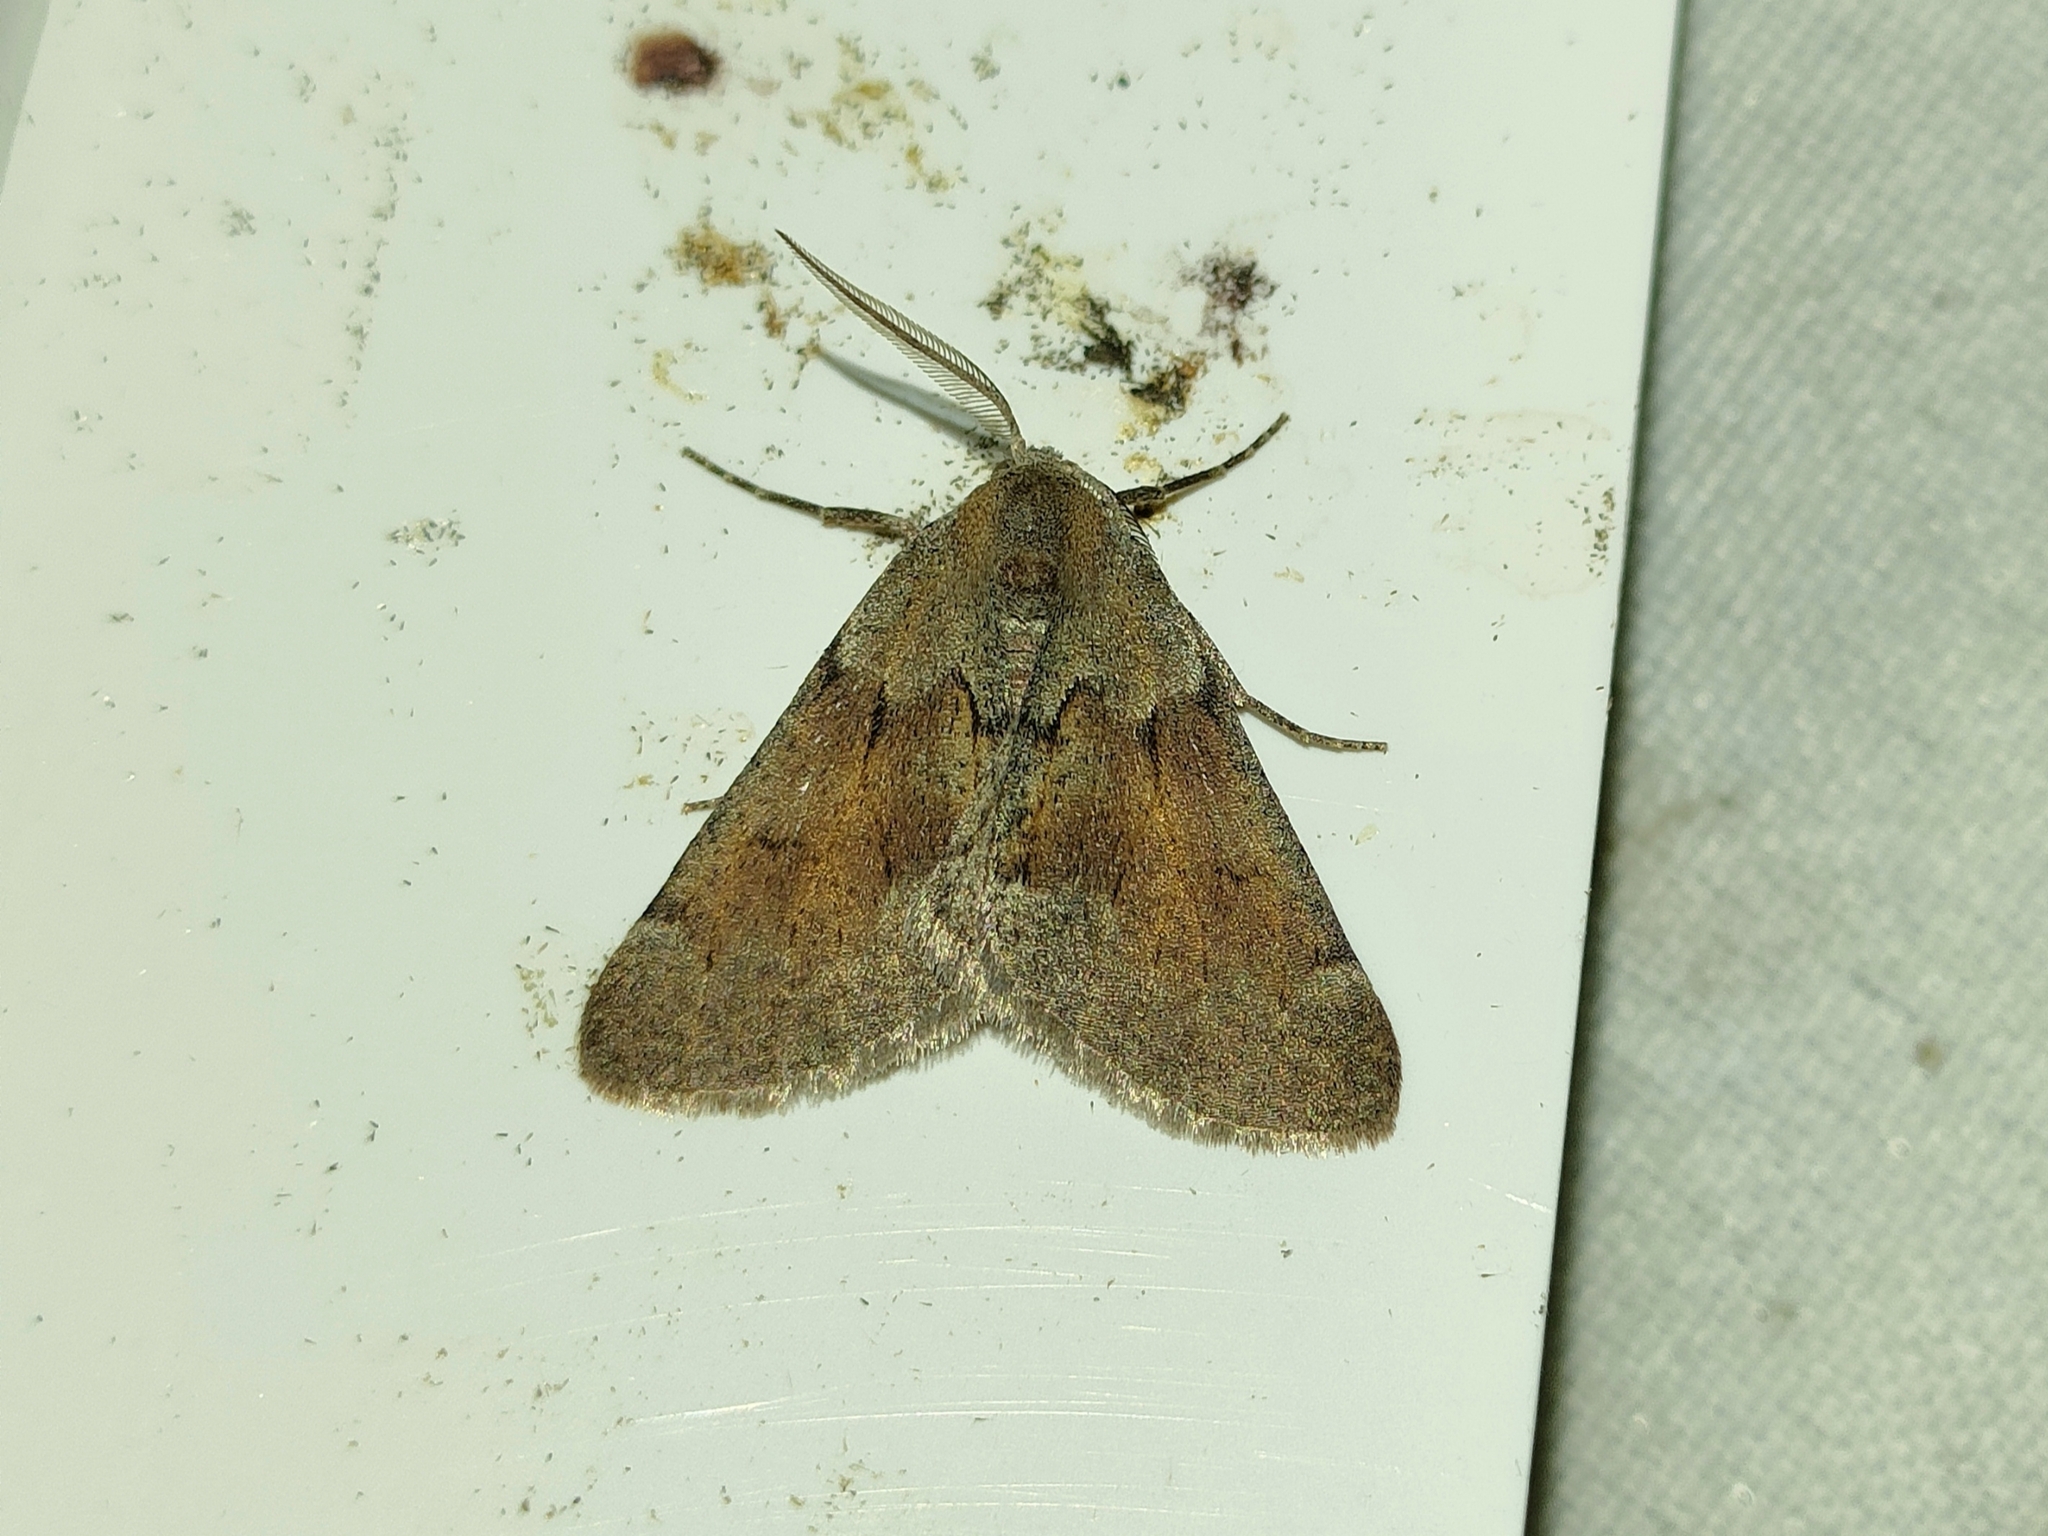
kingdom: Animalia
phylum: Arthropoda
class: Insecta
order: Lepidoptera
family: Geometridae
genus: Adalbertia
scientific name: Adalbertia castiliaria
